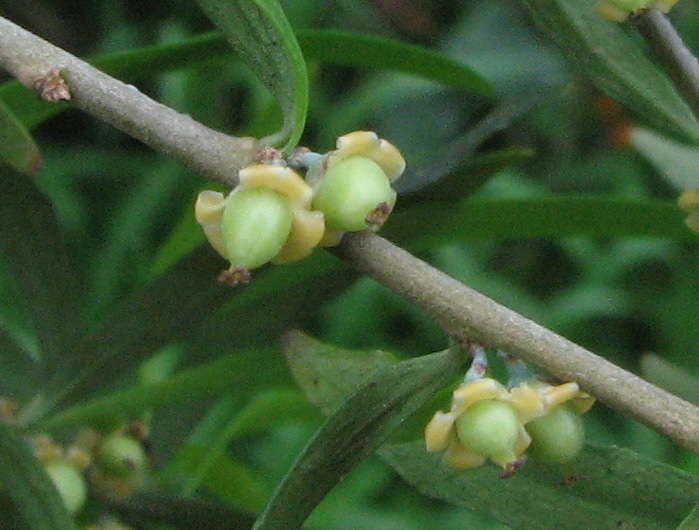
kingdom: Plantae
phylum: Tracheophyta
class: Magnoliopsida
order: Malpighiales
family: Violaceae
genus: Melicytus
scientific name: Melicytus dentatus
